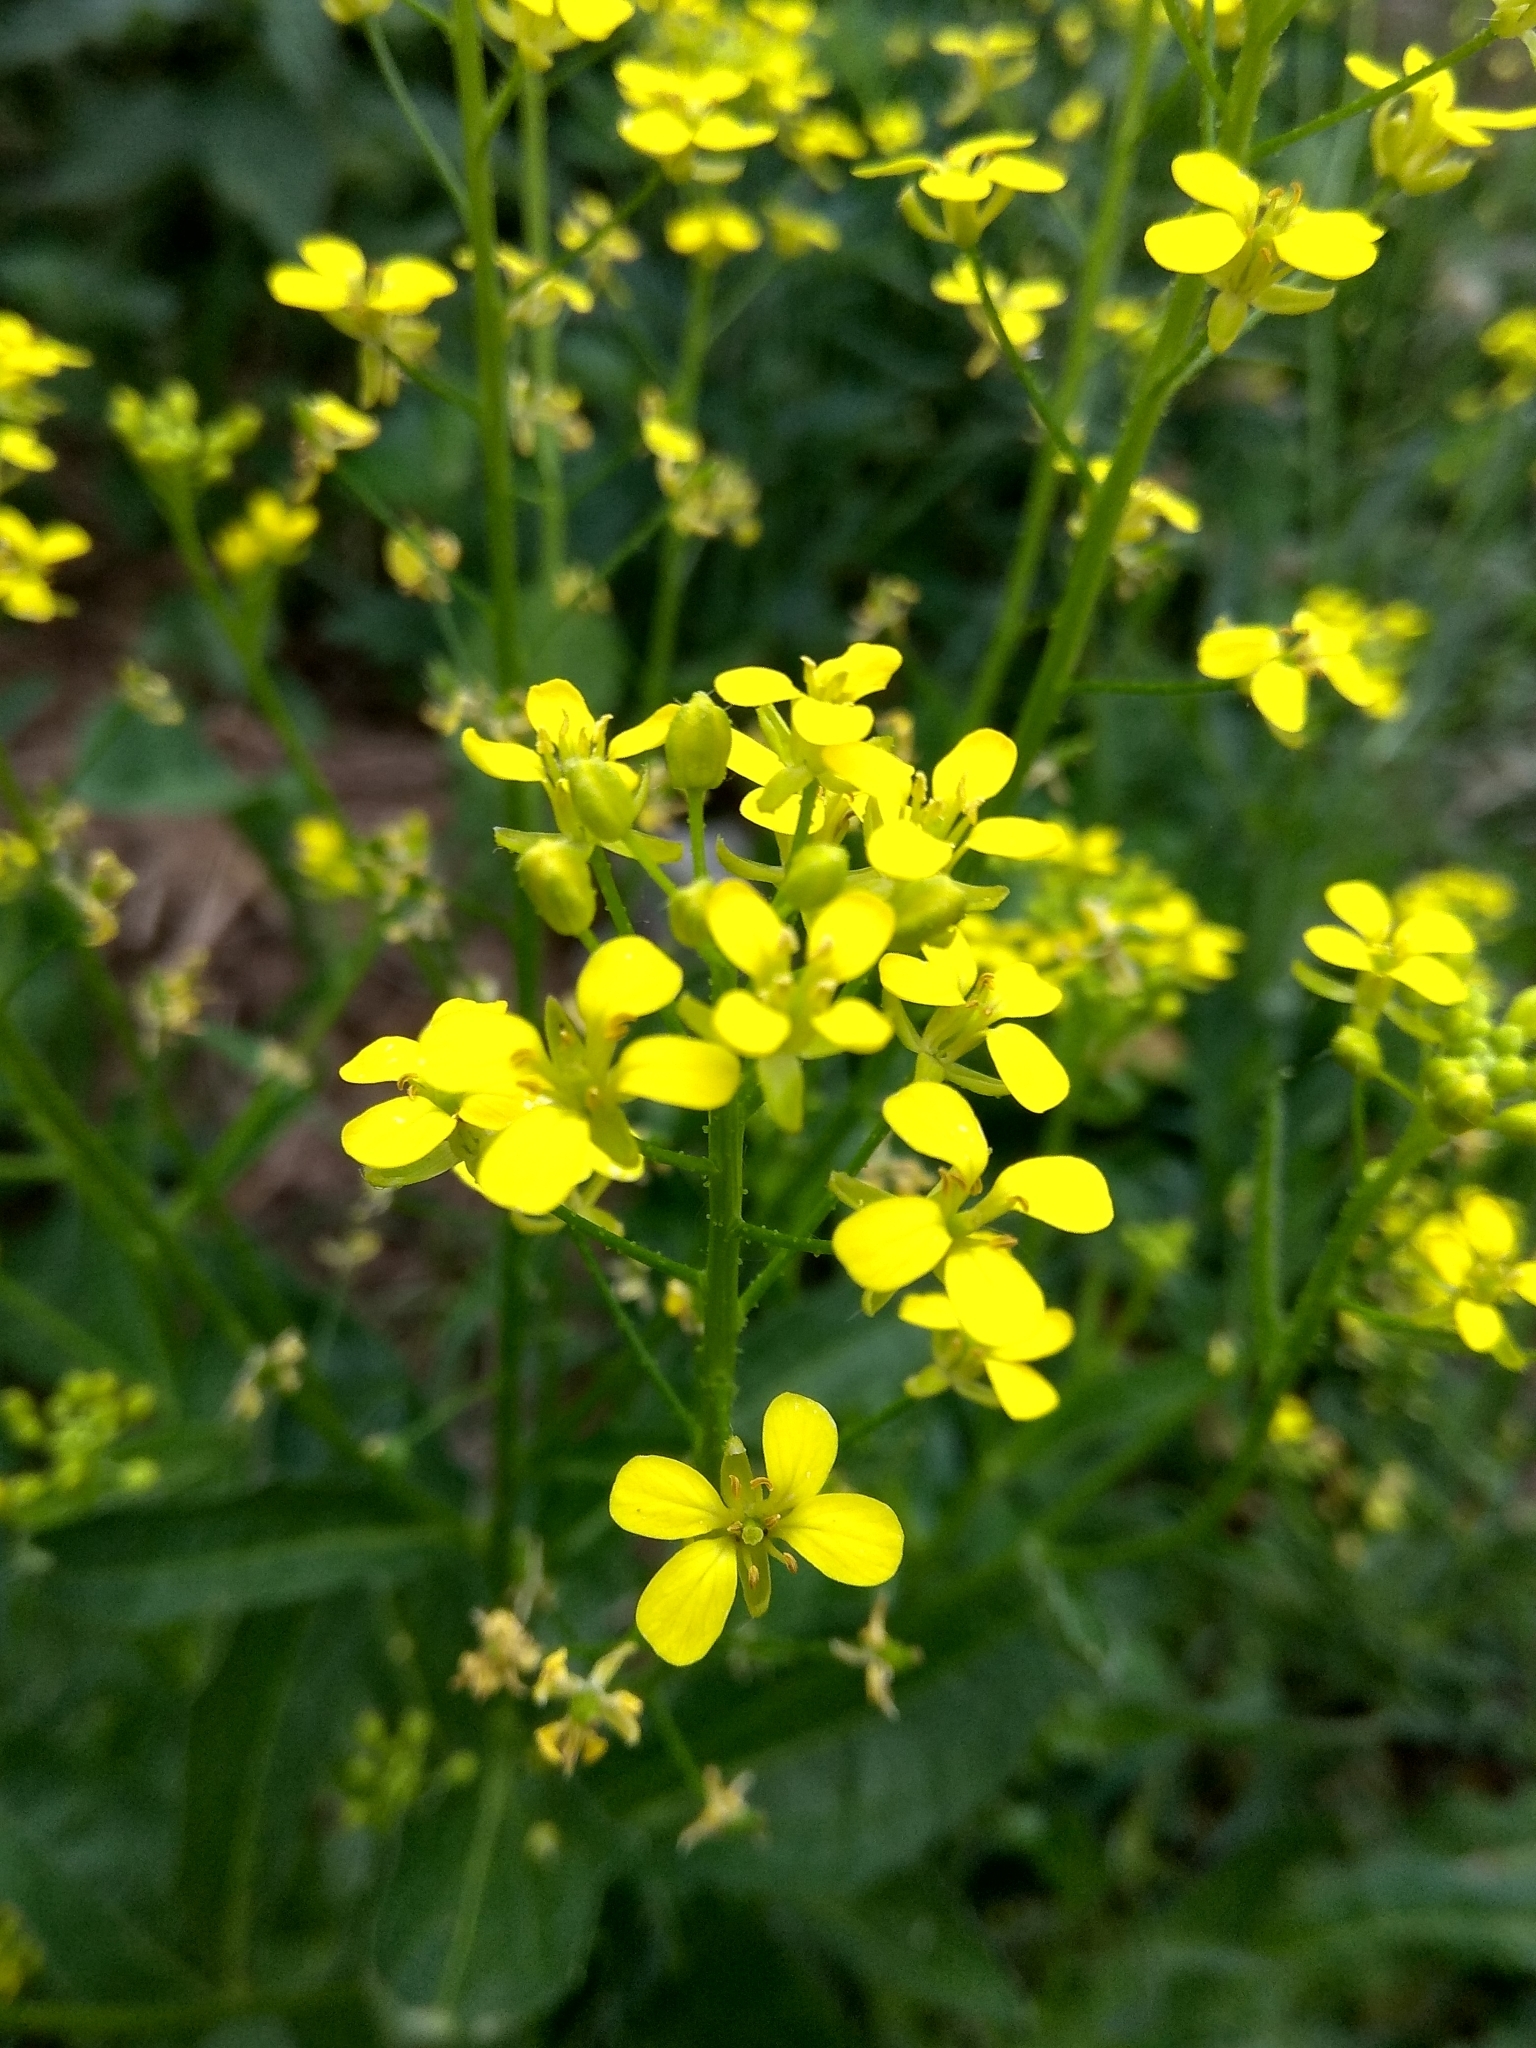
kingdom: Plantae
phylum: Tracheophyta
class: Magnoliopsida
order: Brassicales
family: Brassicaceae
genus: Bunias
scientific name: Bunias orientalis
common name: Warty-cabbage
